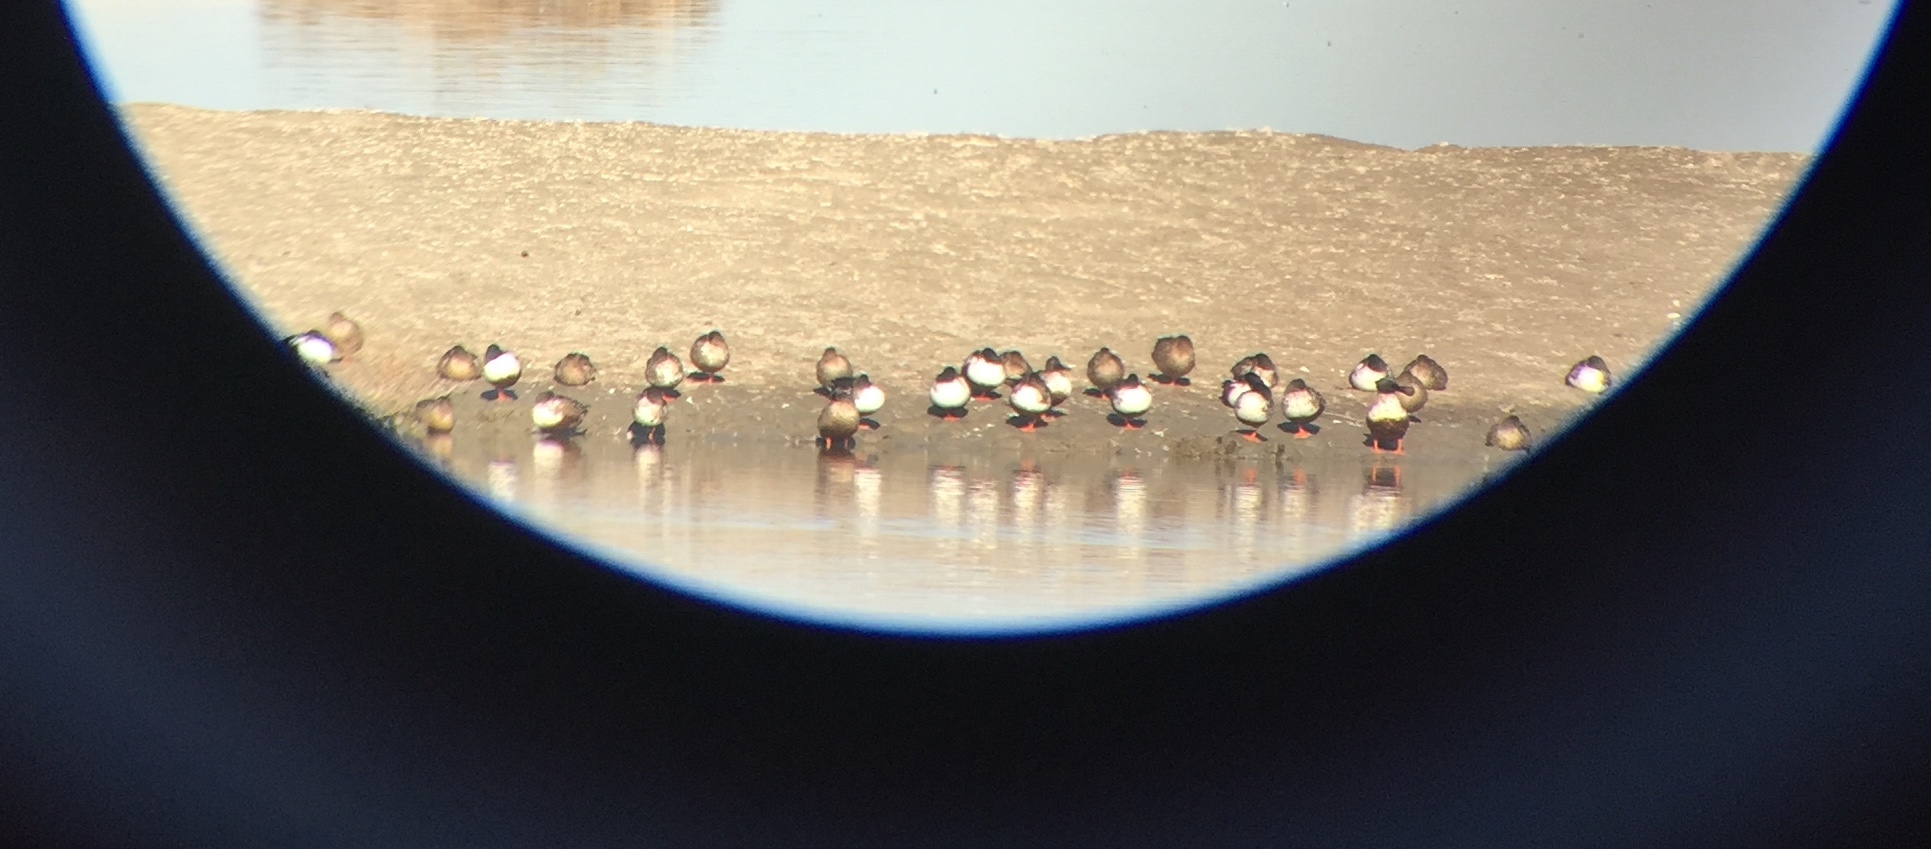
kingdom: Animalia
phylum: Chordata
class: Aves
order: Anseriformes
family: Anatidae
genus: Spatula
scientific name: Spatula clypeata
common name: Northern shoveler
